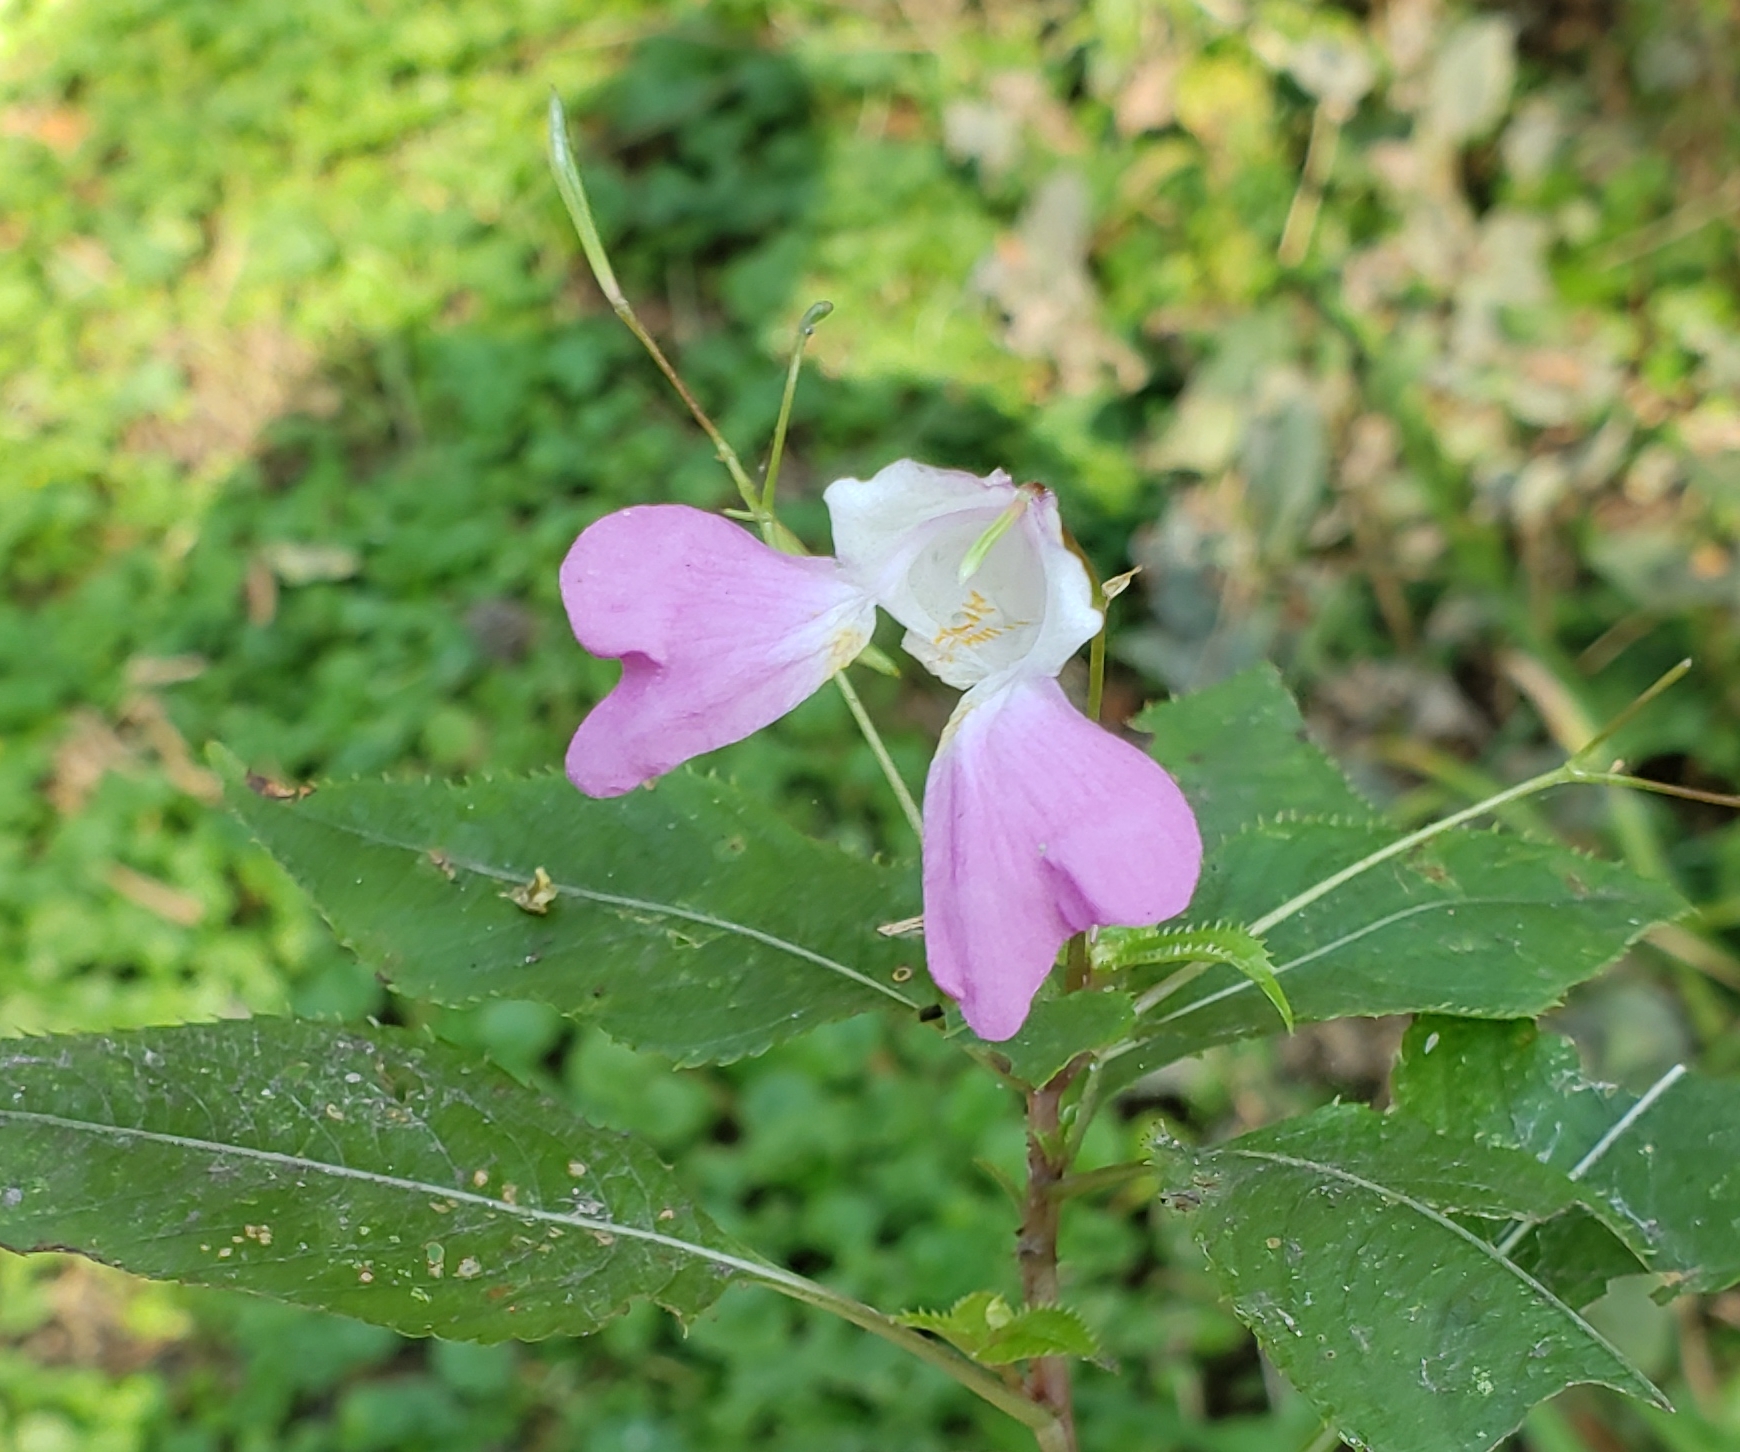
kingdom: Plantae
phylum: Tracheophyta
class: Magnoliopsida
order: Ericales
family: Balsaminaceae
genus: Impatiens
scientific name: Impatiens balfourii
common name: Balfour's touch-me-not
